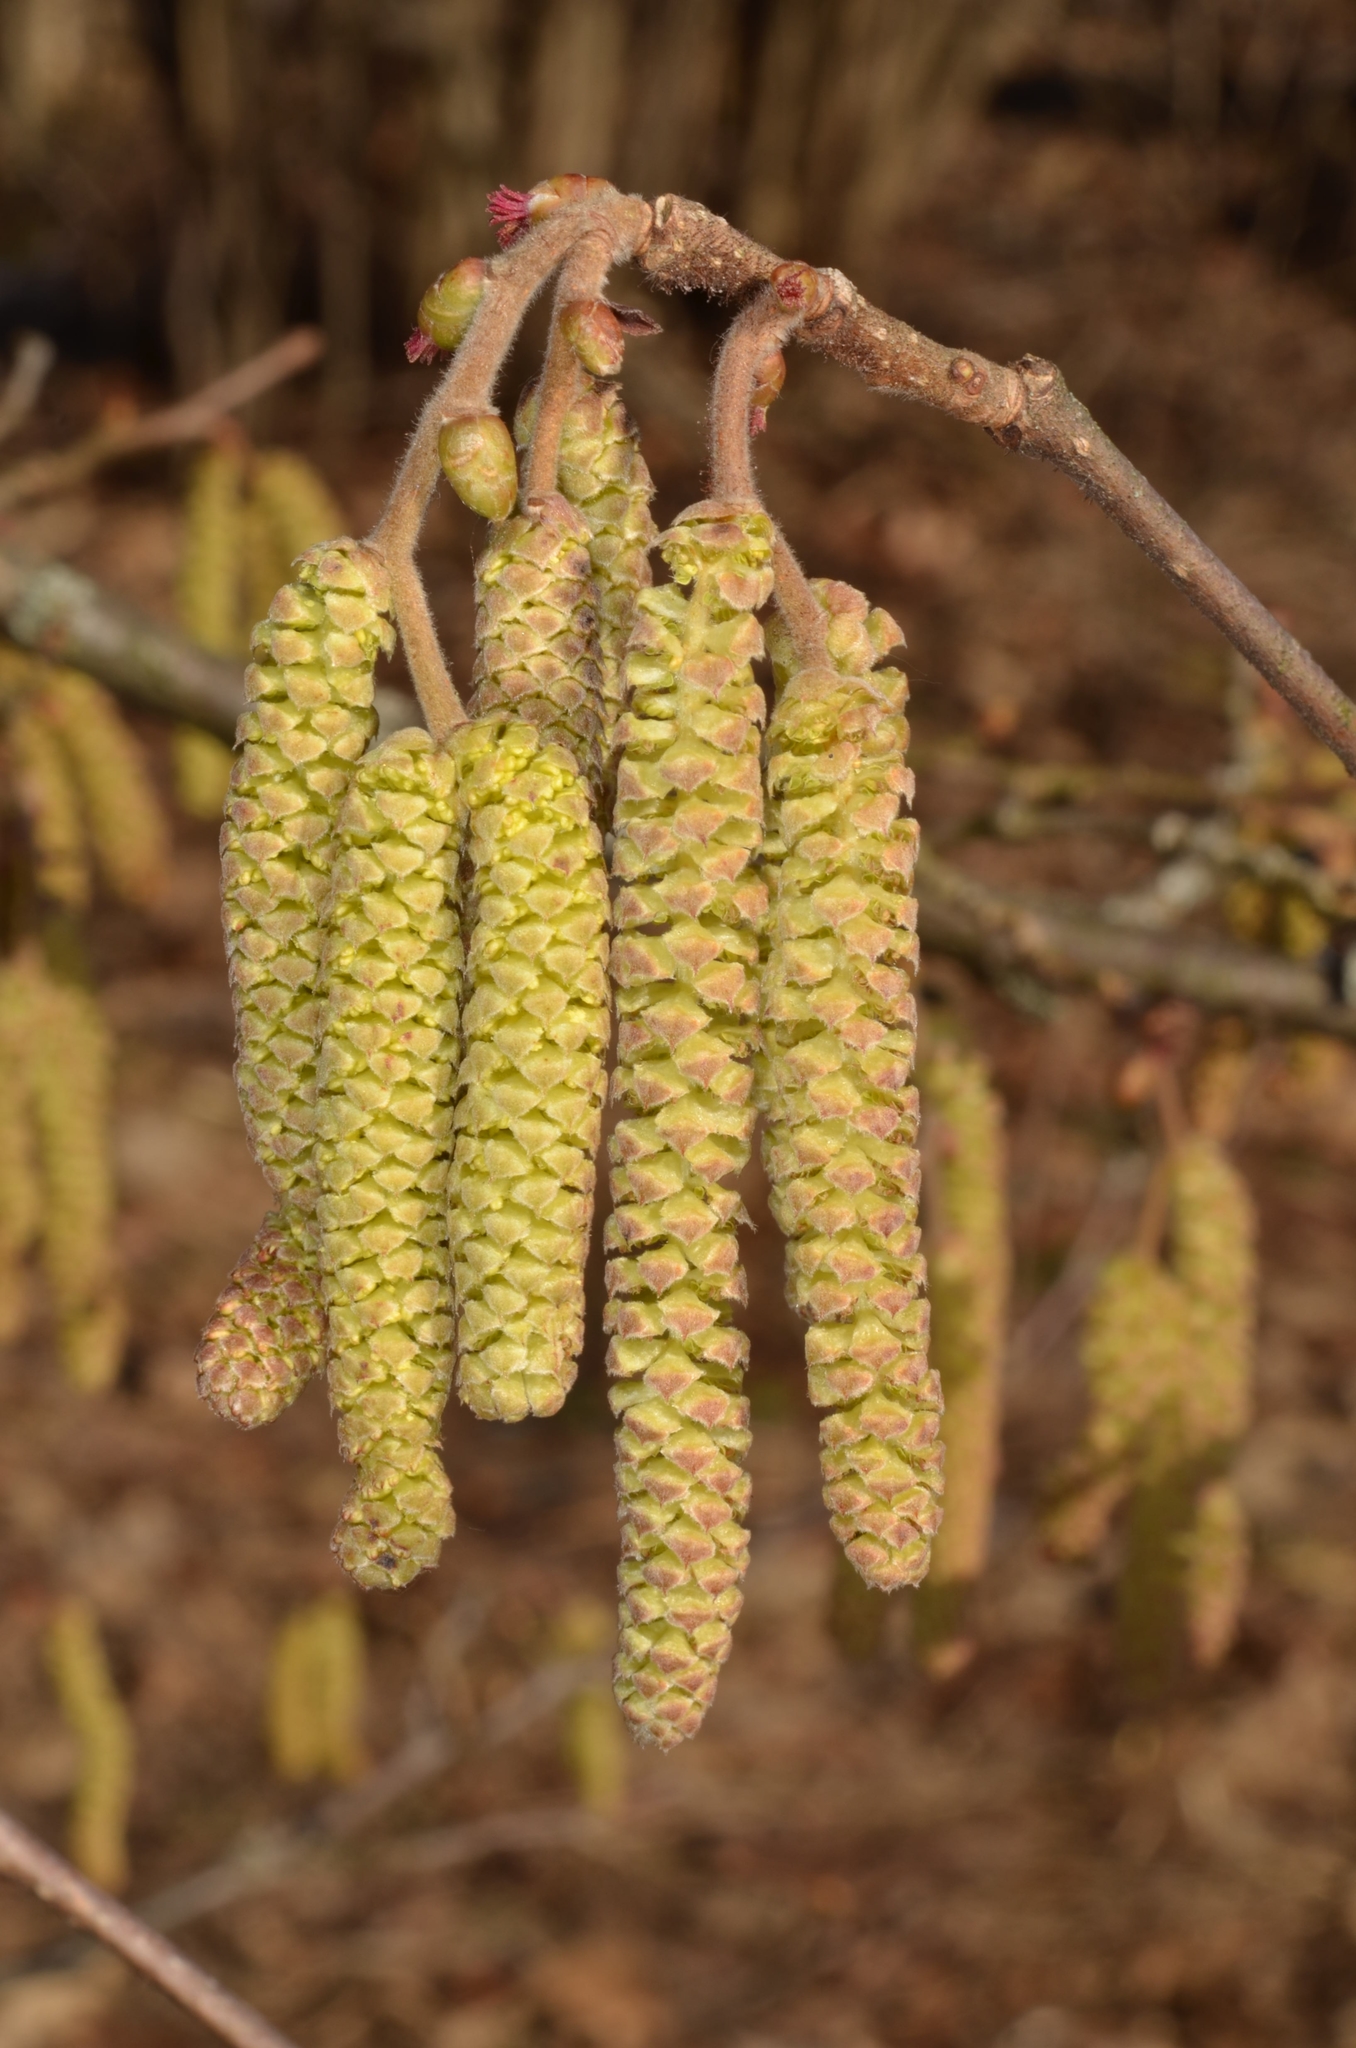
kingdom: Plantae
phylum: Tracheophyta
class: Magnoliopsida
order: Fagales
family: Betulaceae
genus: Corylus
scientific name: Corylus avellana
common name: European hazel
